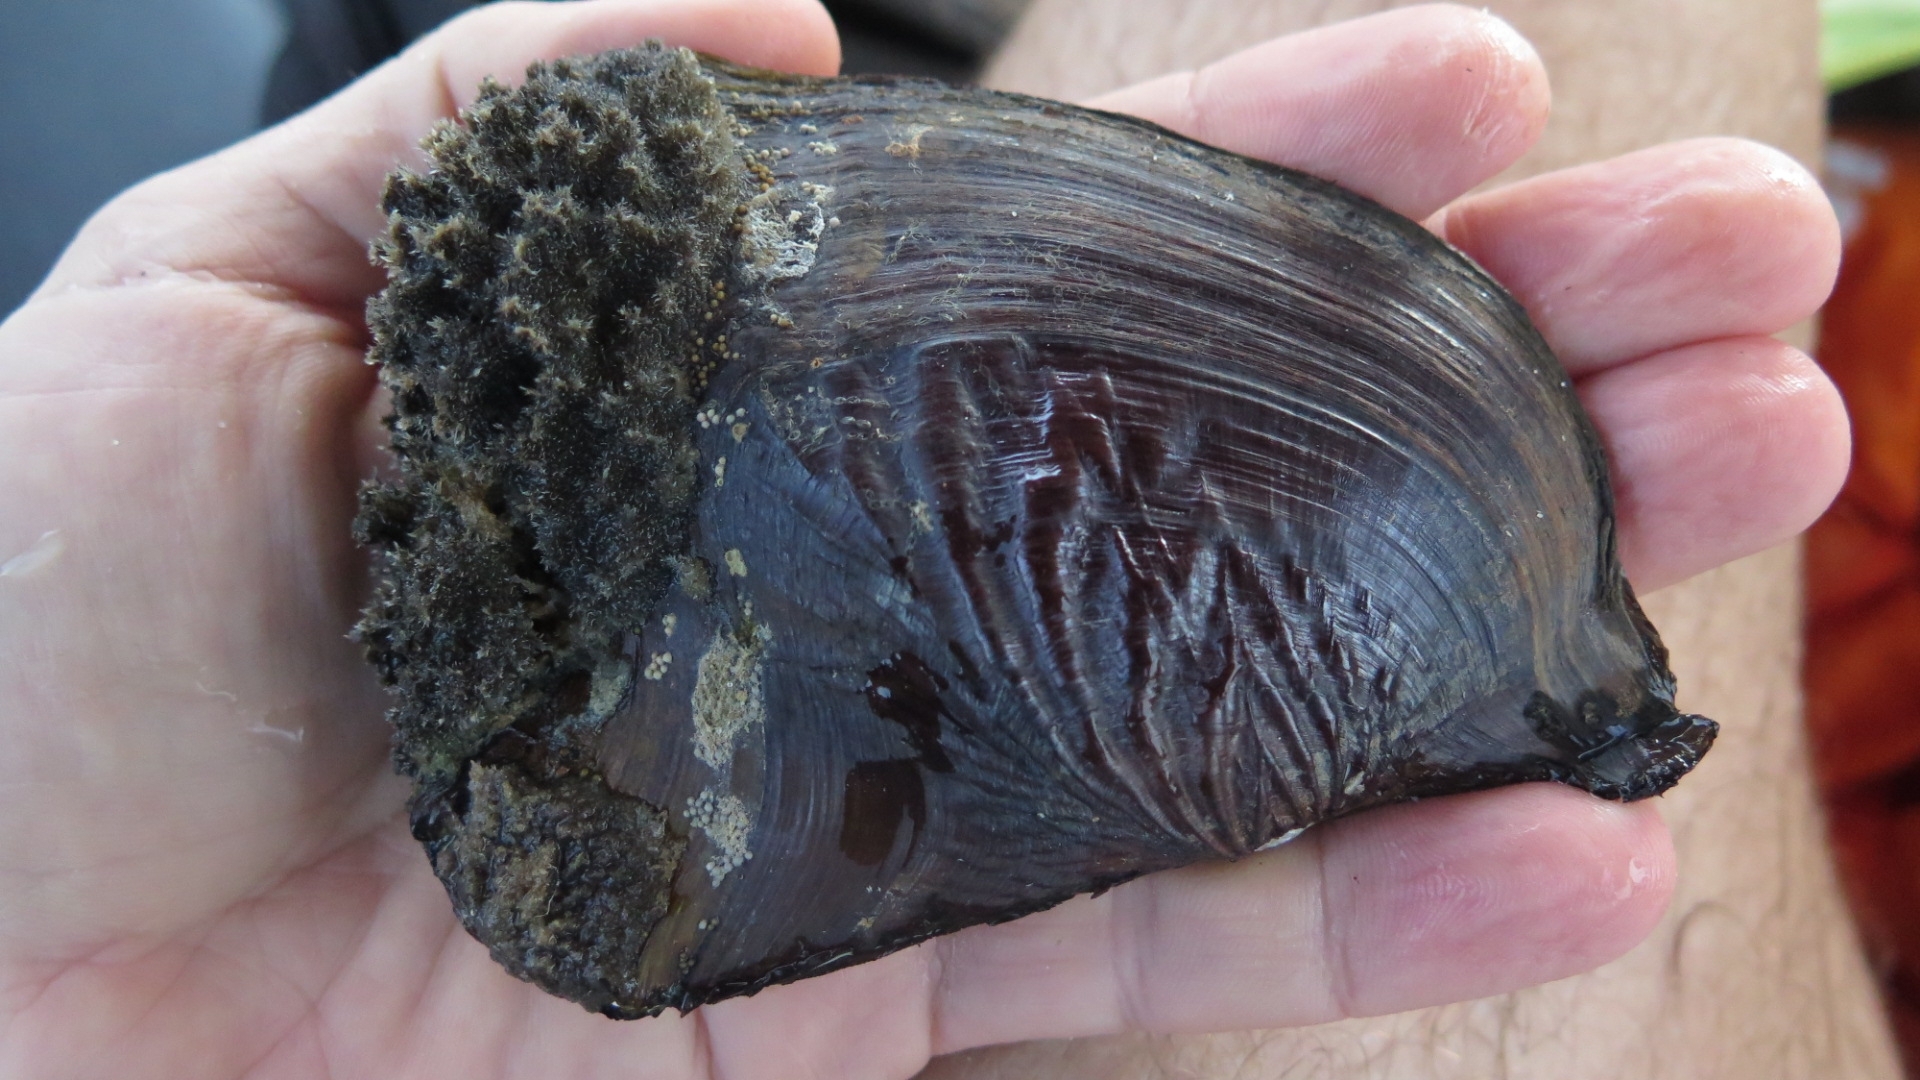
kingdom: Animalia
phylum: Mollusca
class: Bivalvia
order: Unionida
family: Hyriidae
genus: Triplodon
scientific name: Triplodon corrugatus
